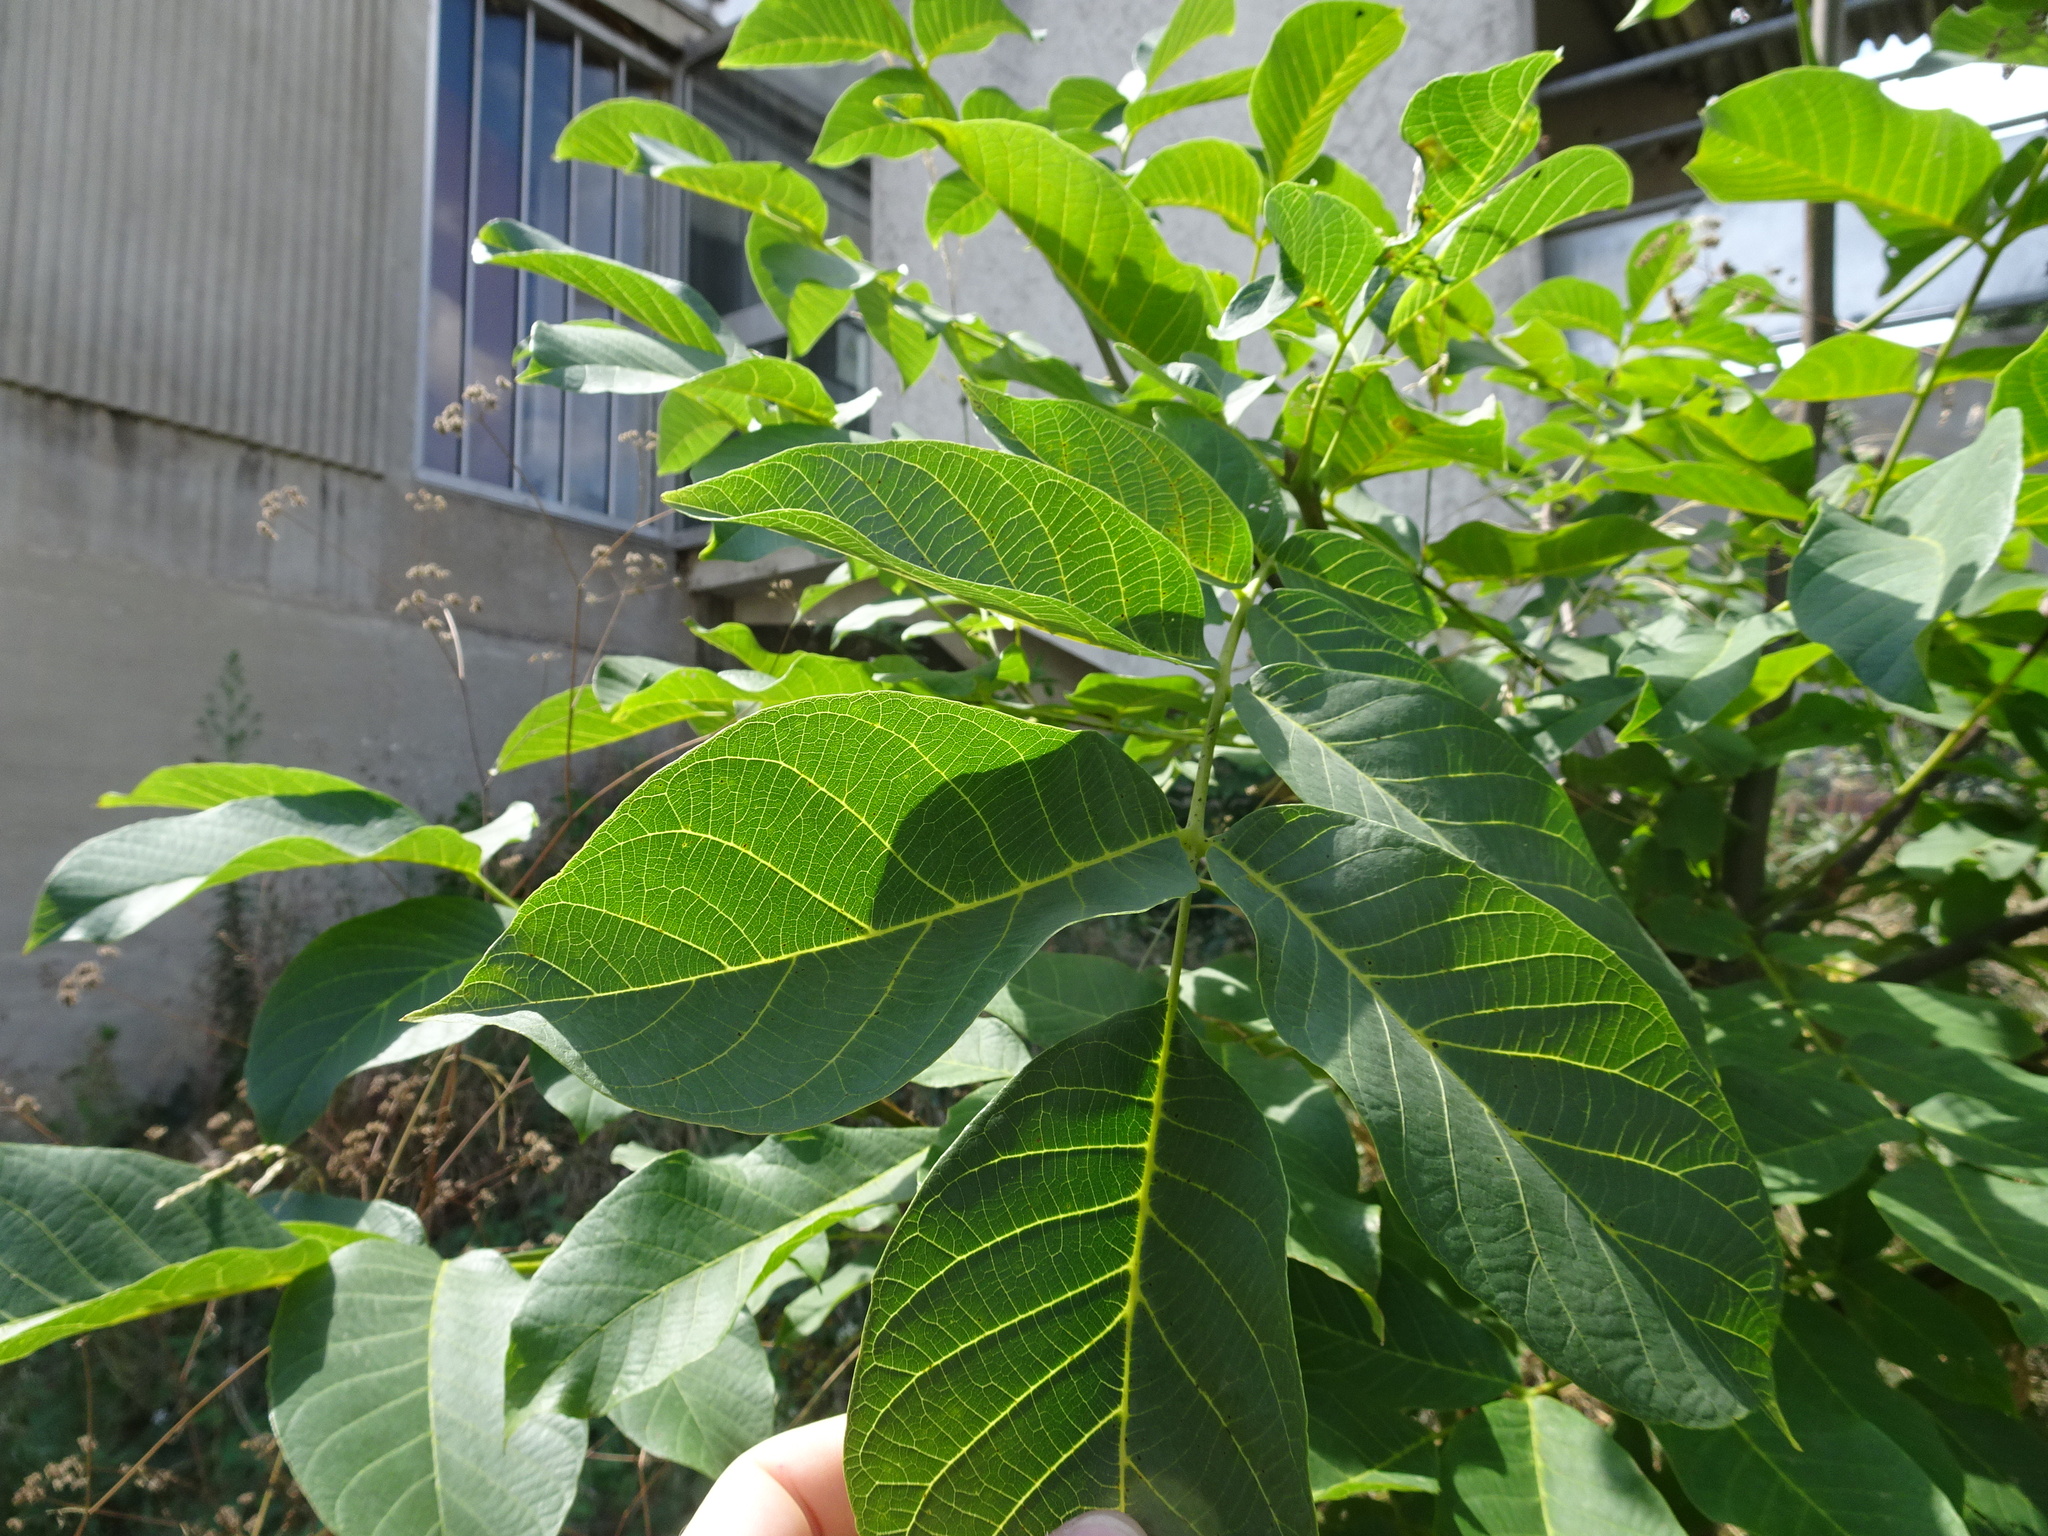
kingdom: Plantae
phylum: Tracheophyta
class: Magnoliopsida
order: Fagales
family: Juglandaceae
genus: Juglans
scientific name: Juglans regia
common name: Walnut
